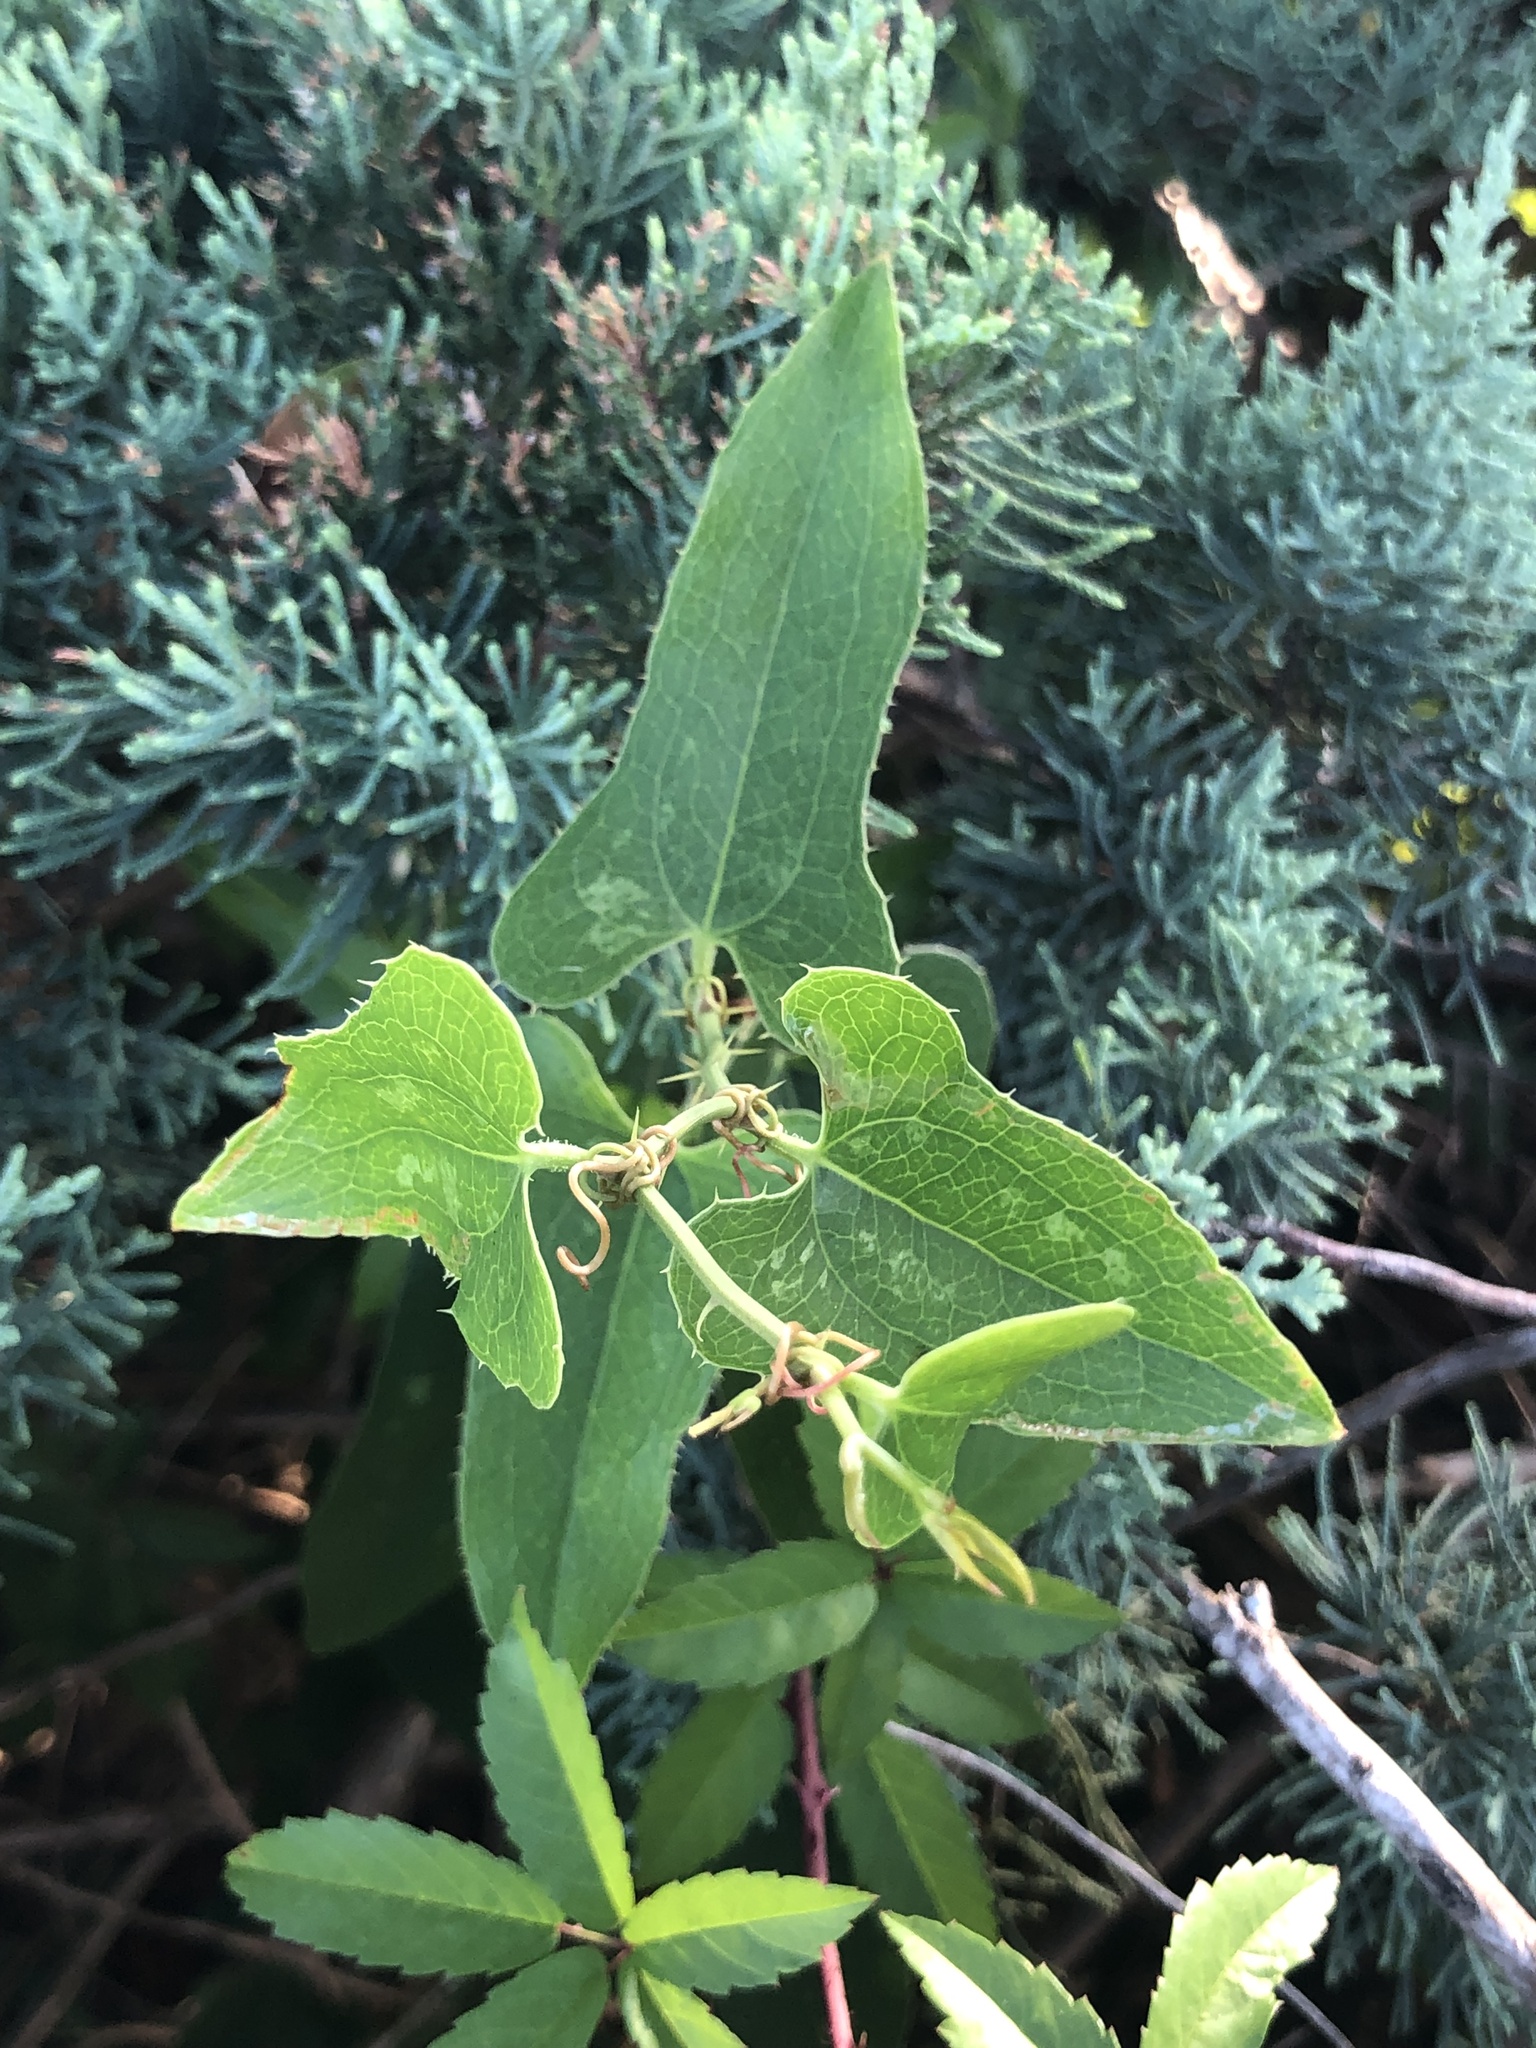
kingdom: Plantae
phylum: Tracheophyta
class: Liliopsida
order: Liliales
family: Smilacaceae
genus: Smilax
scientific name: Smilax bona-nox
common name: Catbrier
